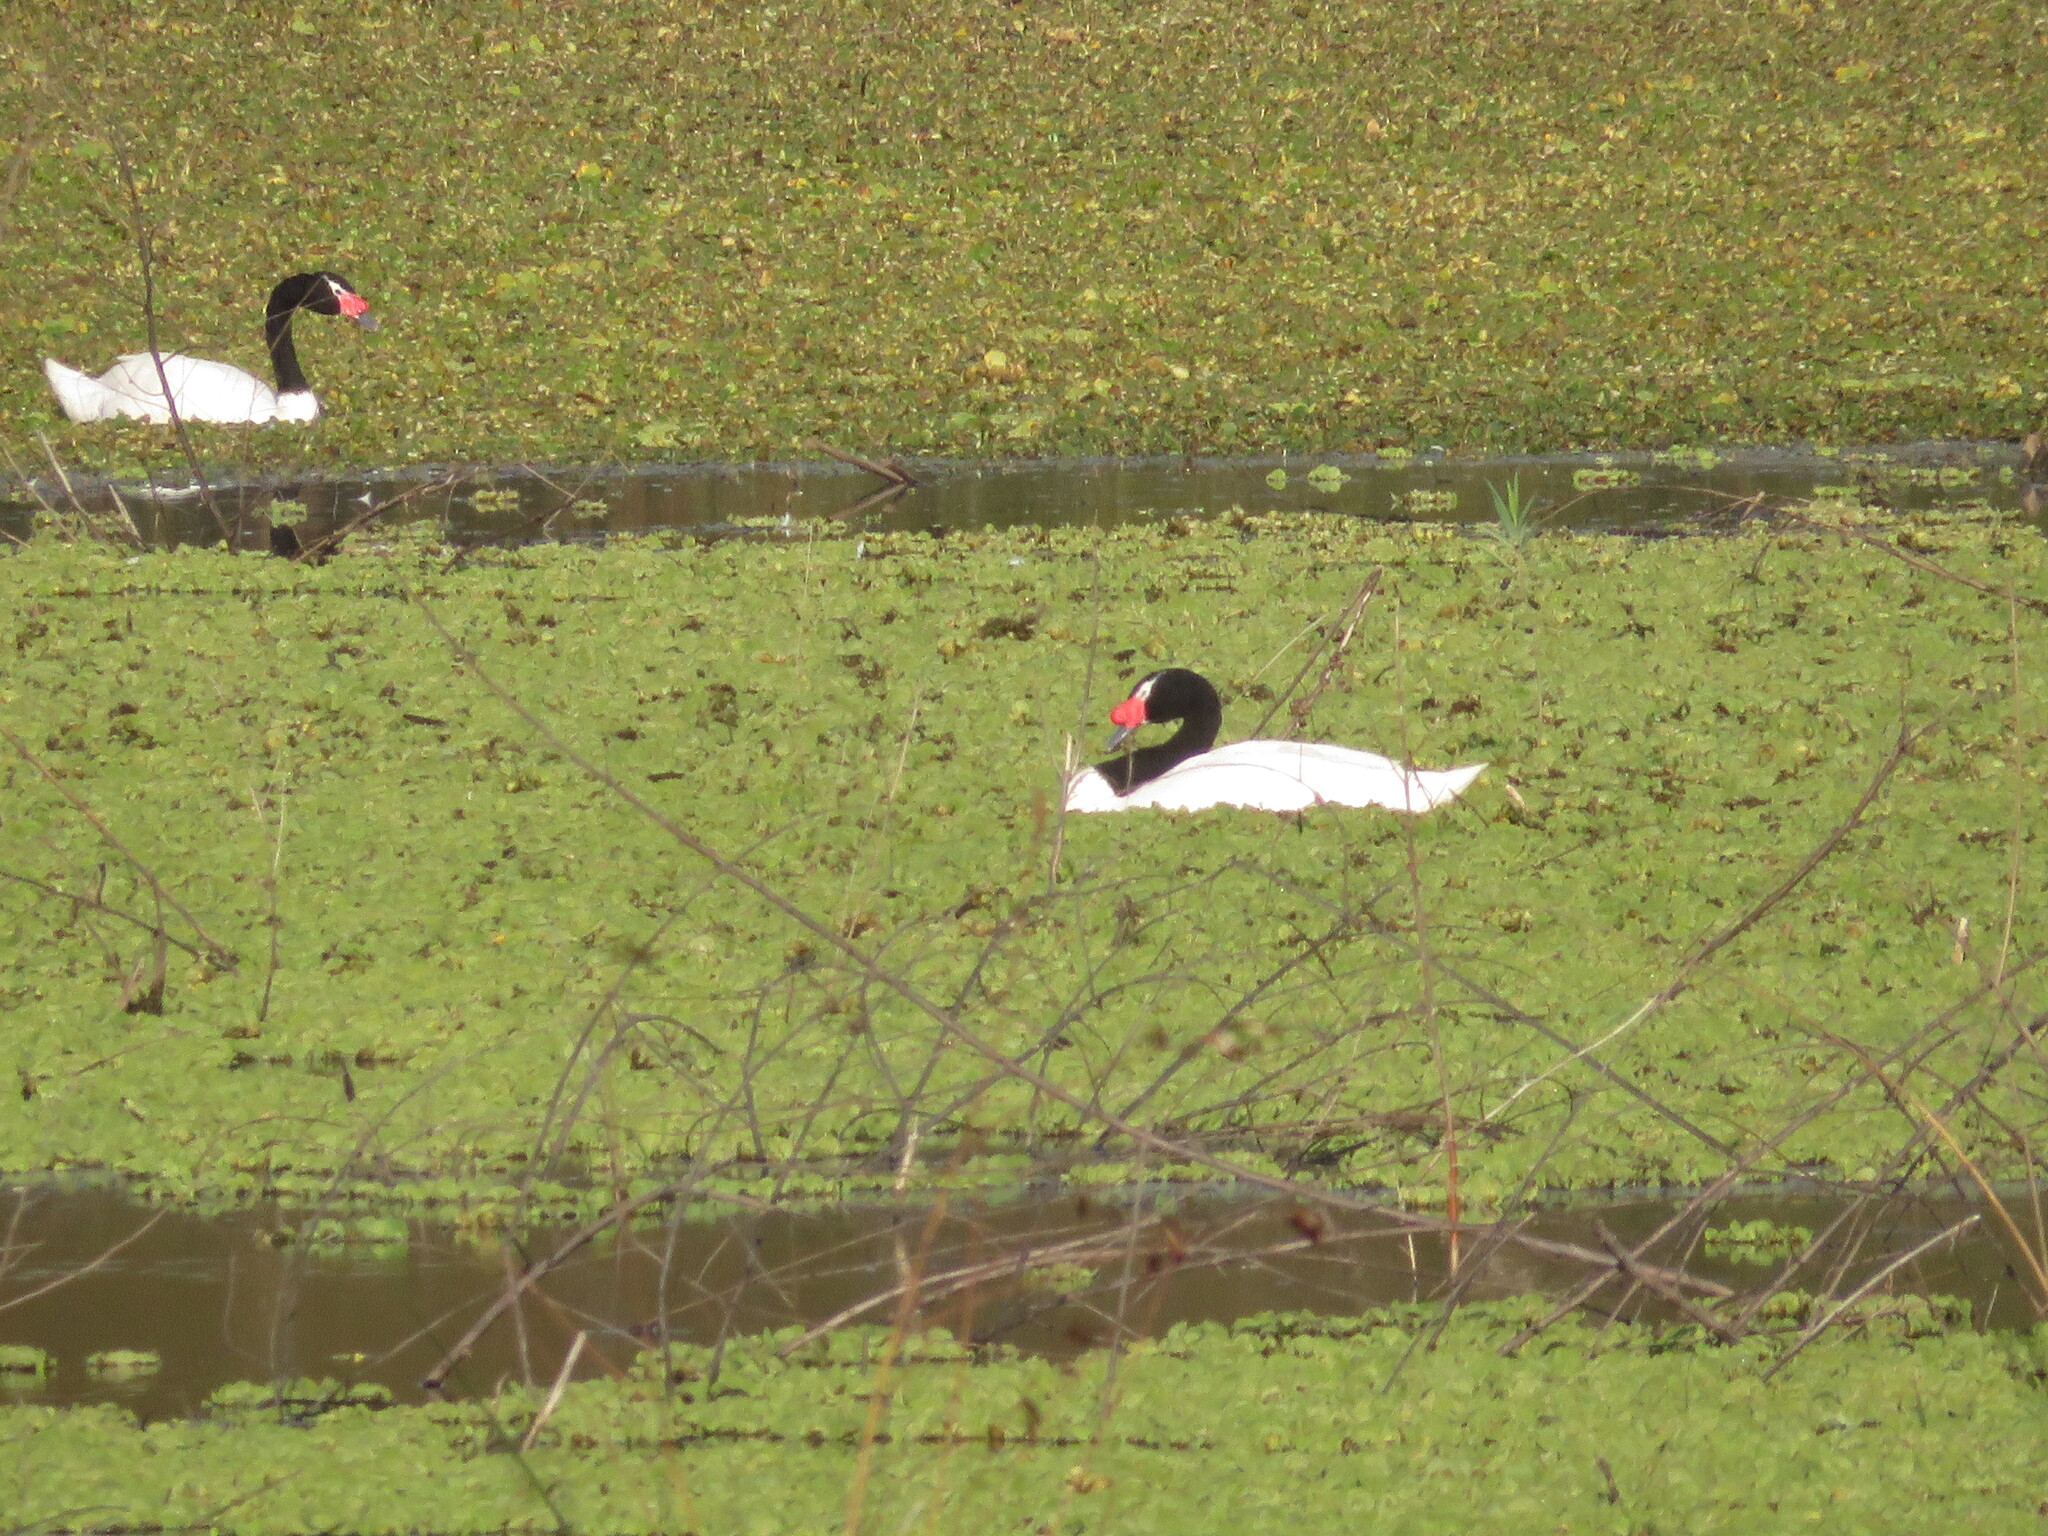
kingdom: Animalia
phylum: Chordata
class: Aves
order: Anseriformes
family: Anatidae
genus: Cygnus
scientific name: Cygnus melancoryphus
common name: Black-necked swan
